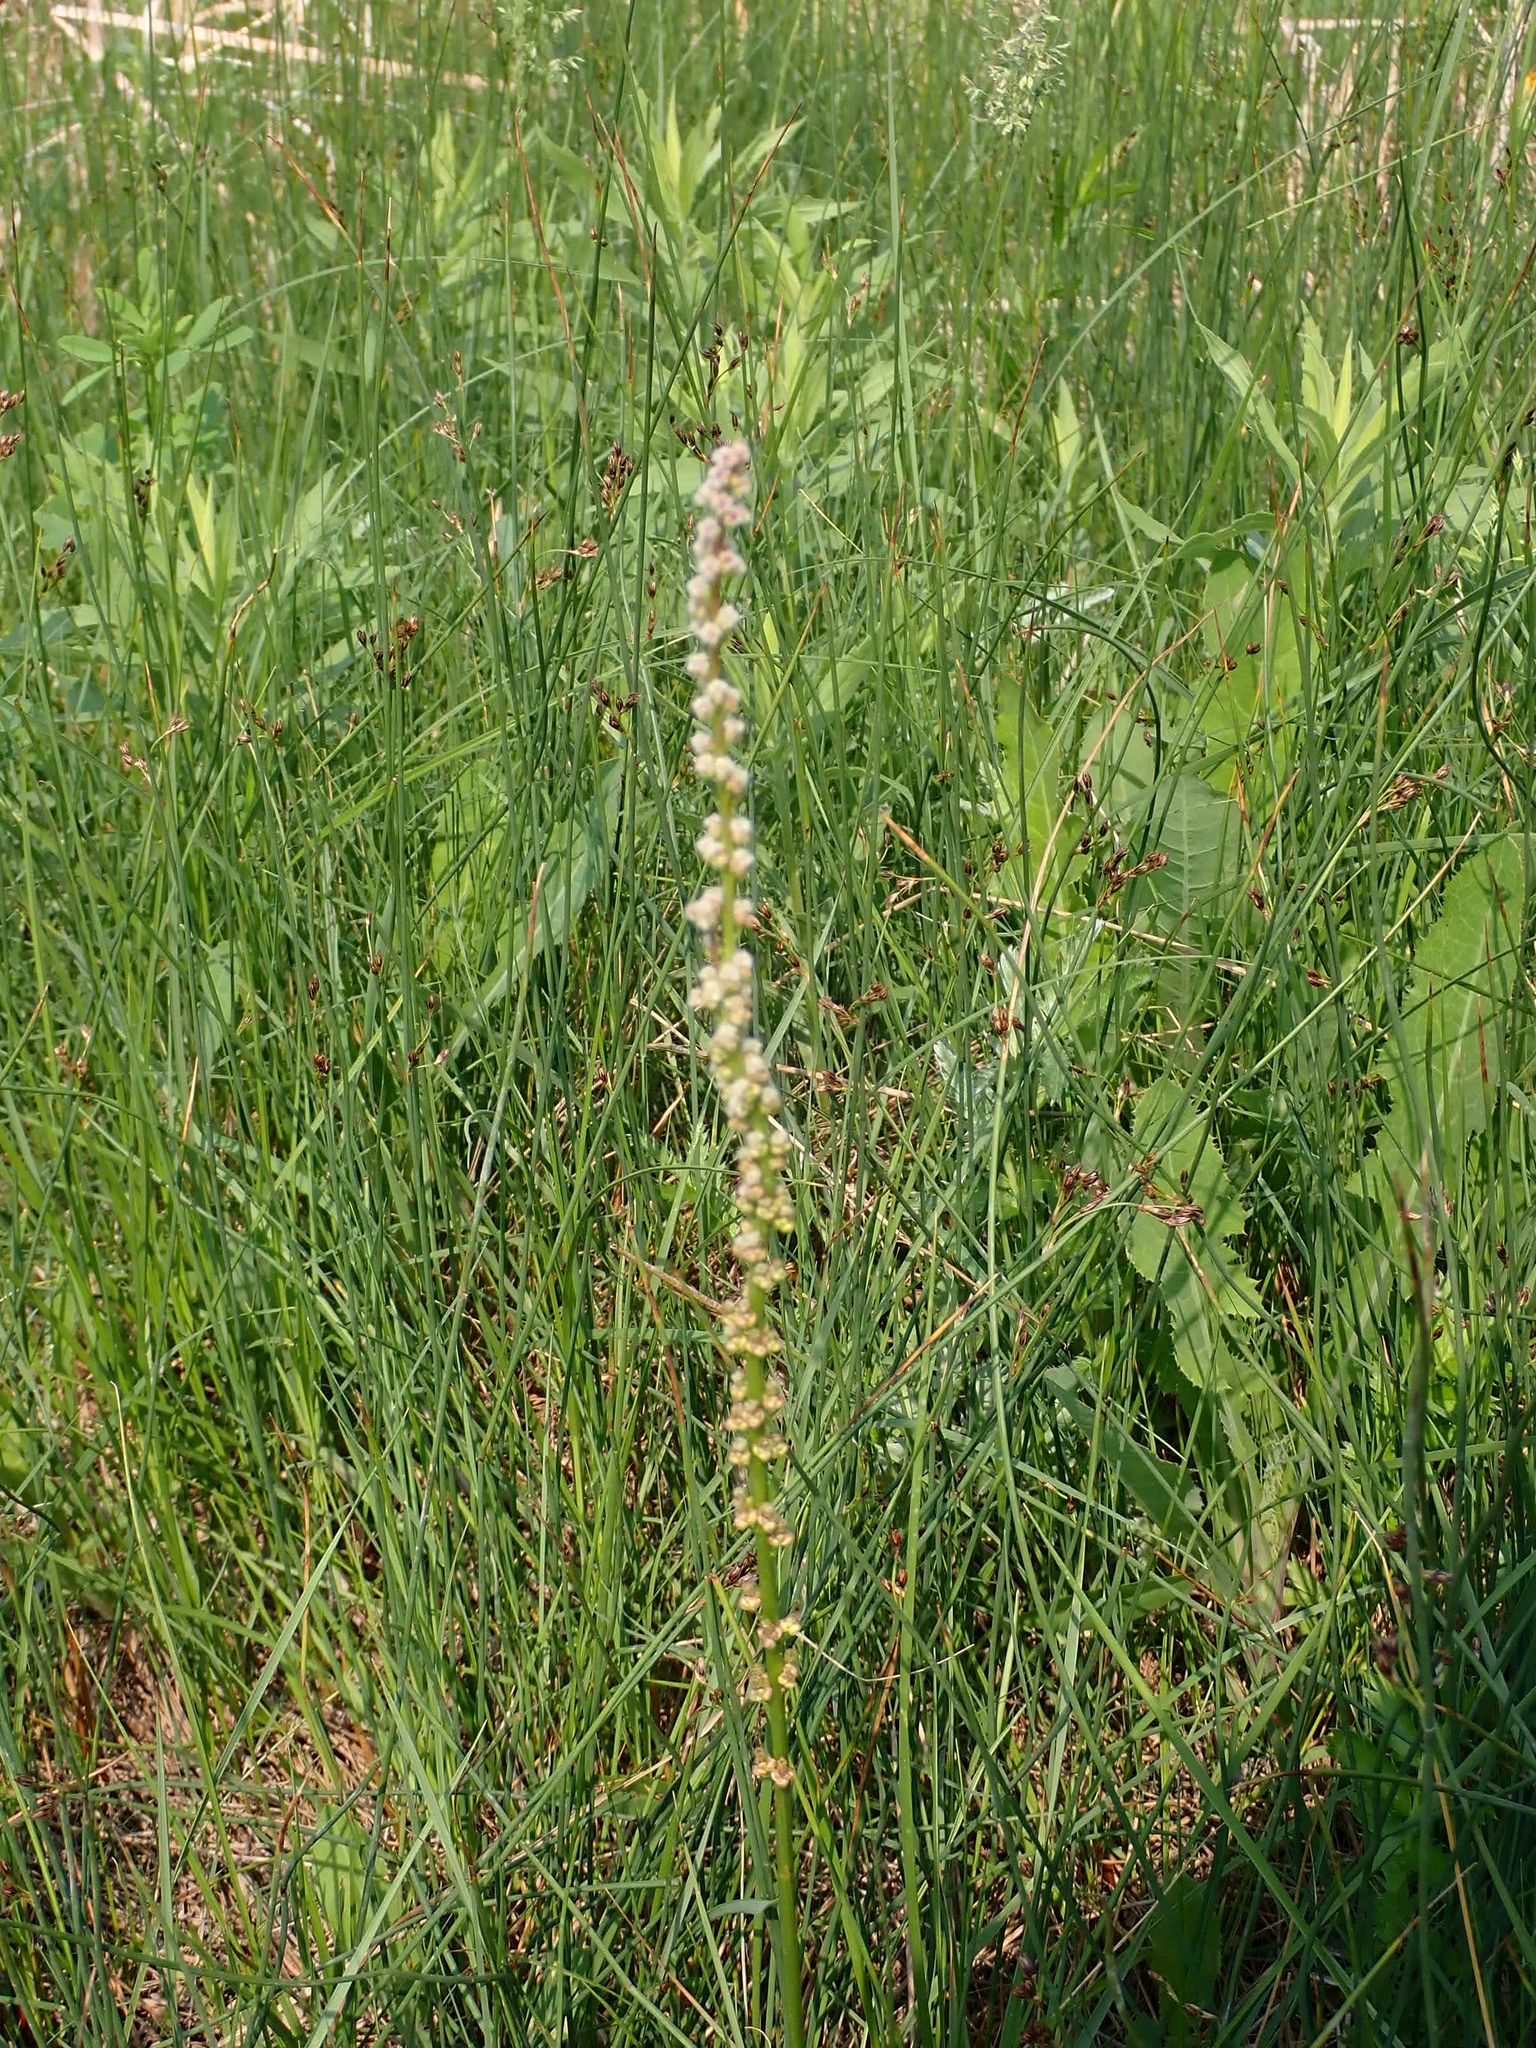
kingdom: Plantae
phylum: Tracheophyta
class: Liliopsida
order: Alismatales
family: Juncaginaceae
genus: Triglochin
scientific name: Triglochin maritima
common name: Sea arrowgrass
